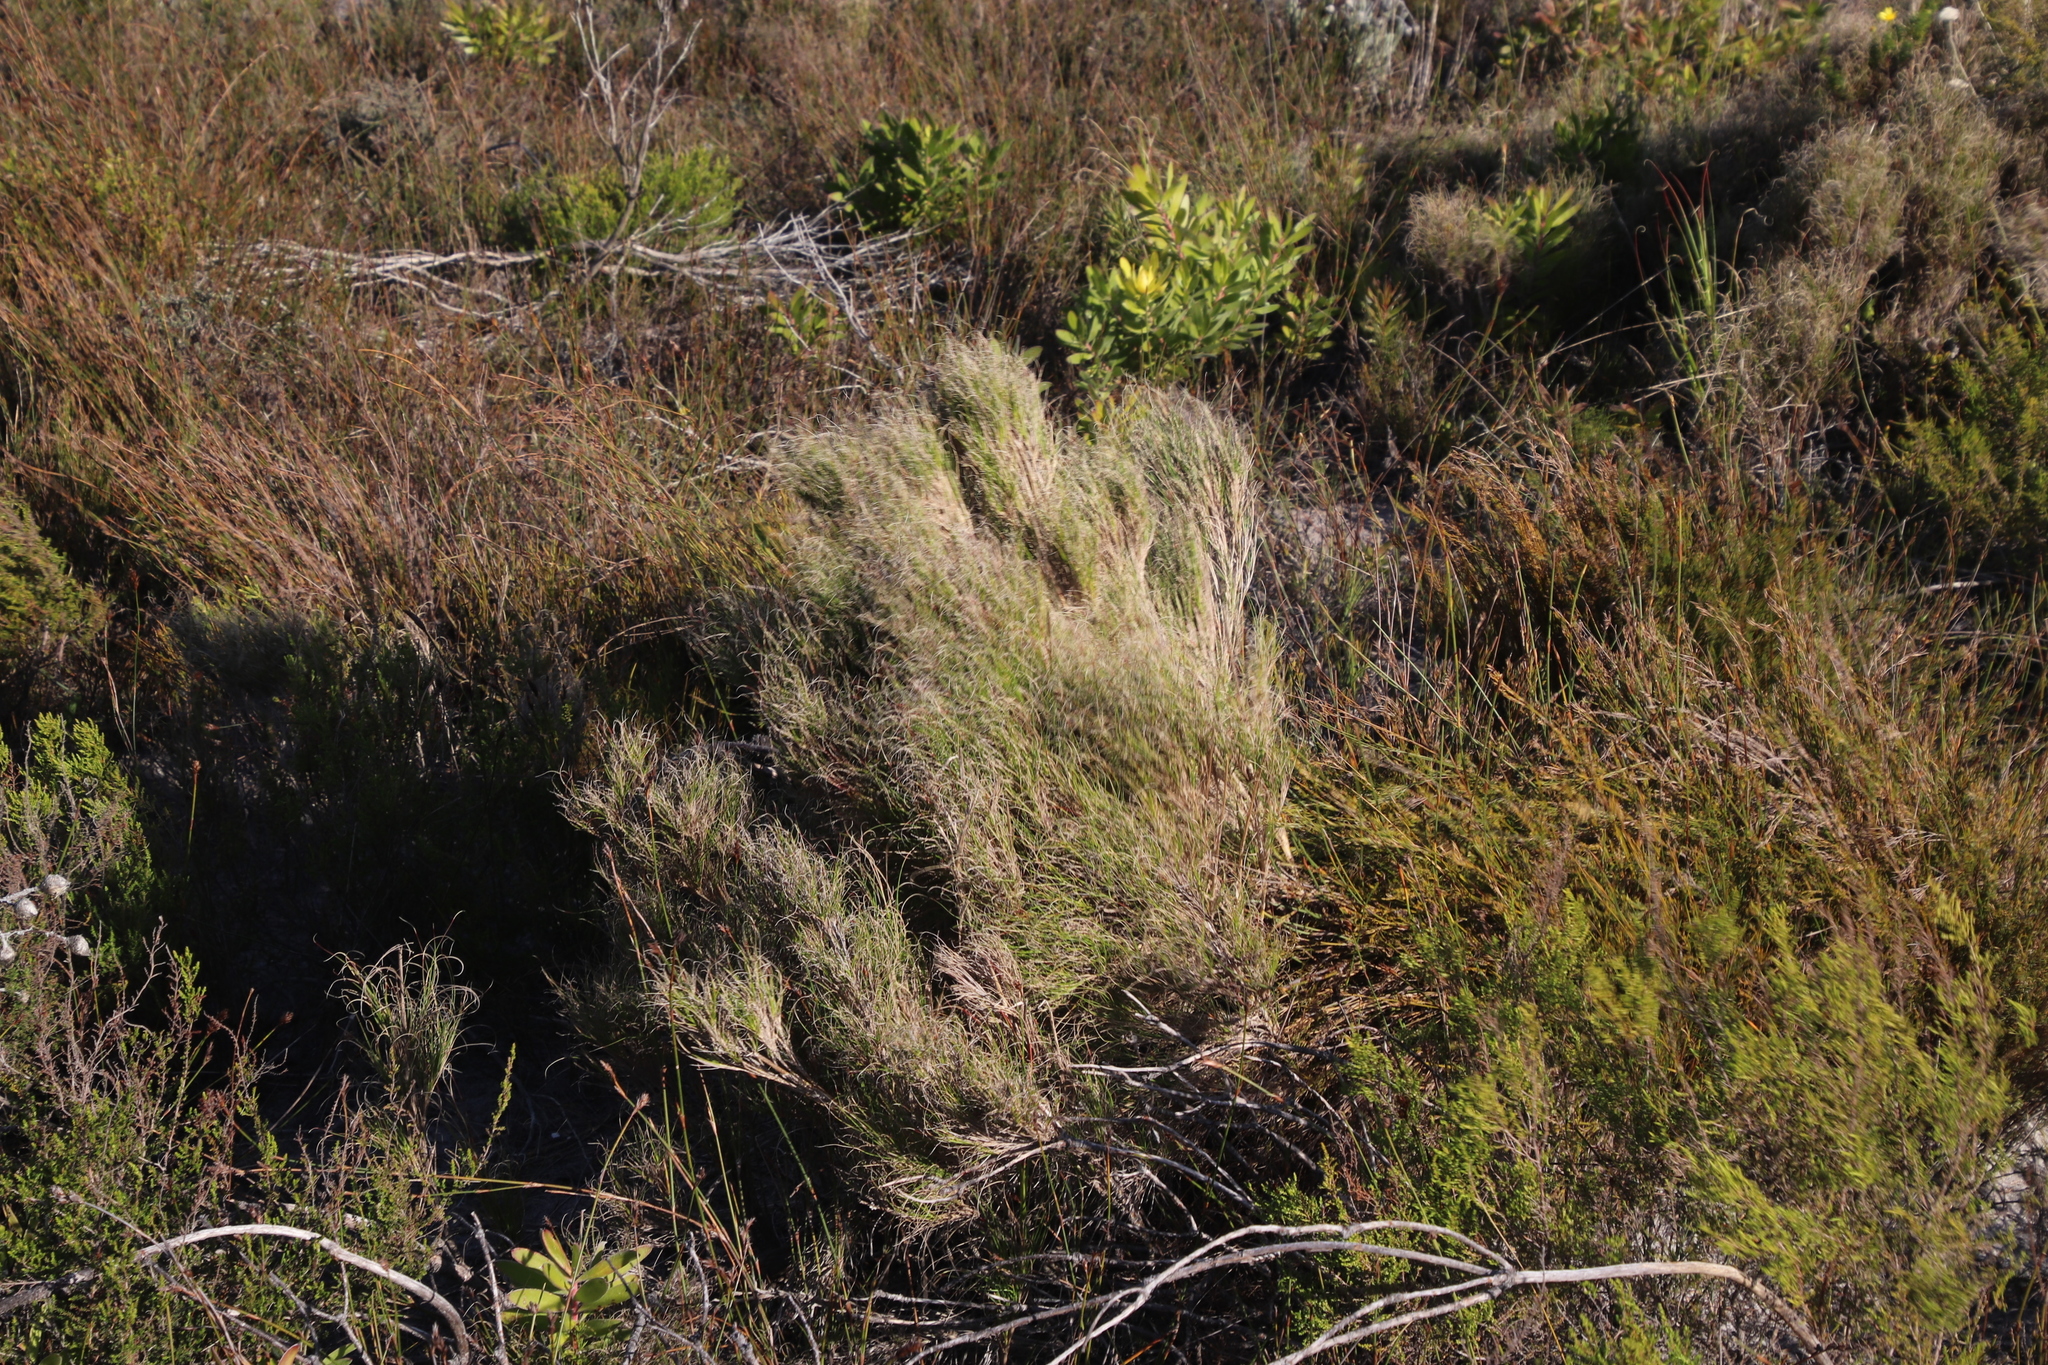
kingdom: Plantae
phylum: Tracheophyta
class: Liliopsida
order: Poales
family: Poaceae
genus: Pseudopentameris
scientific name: Pseudopentameris macrantha
